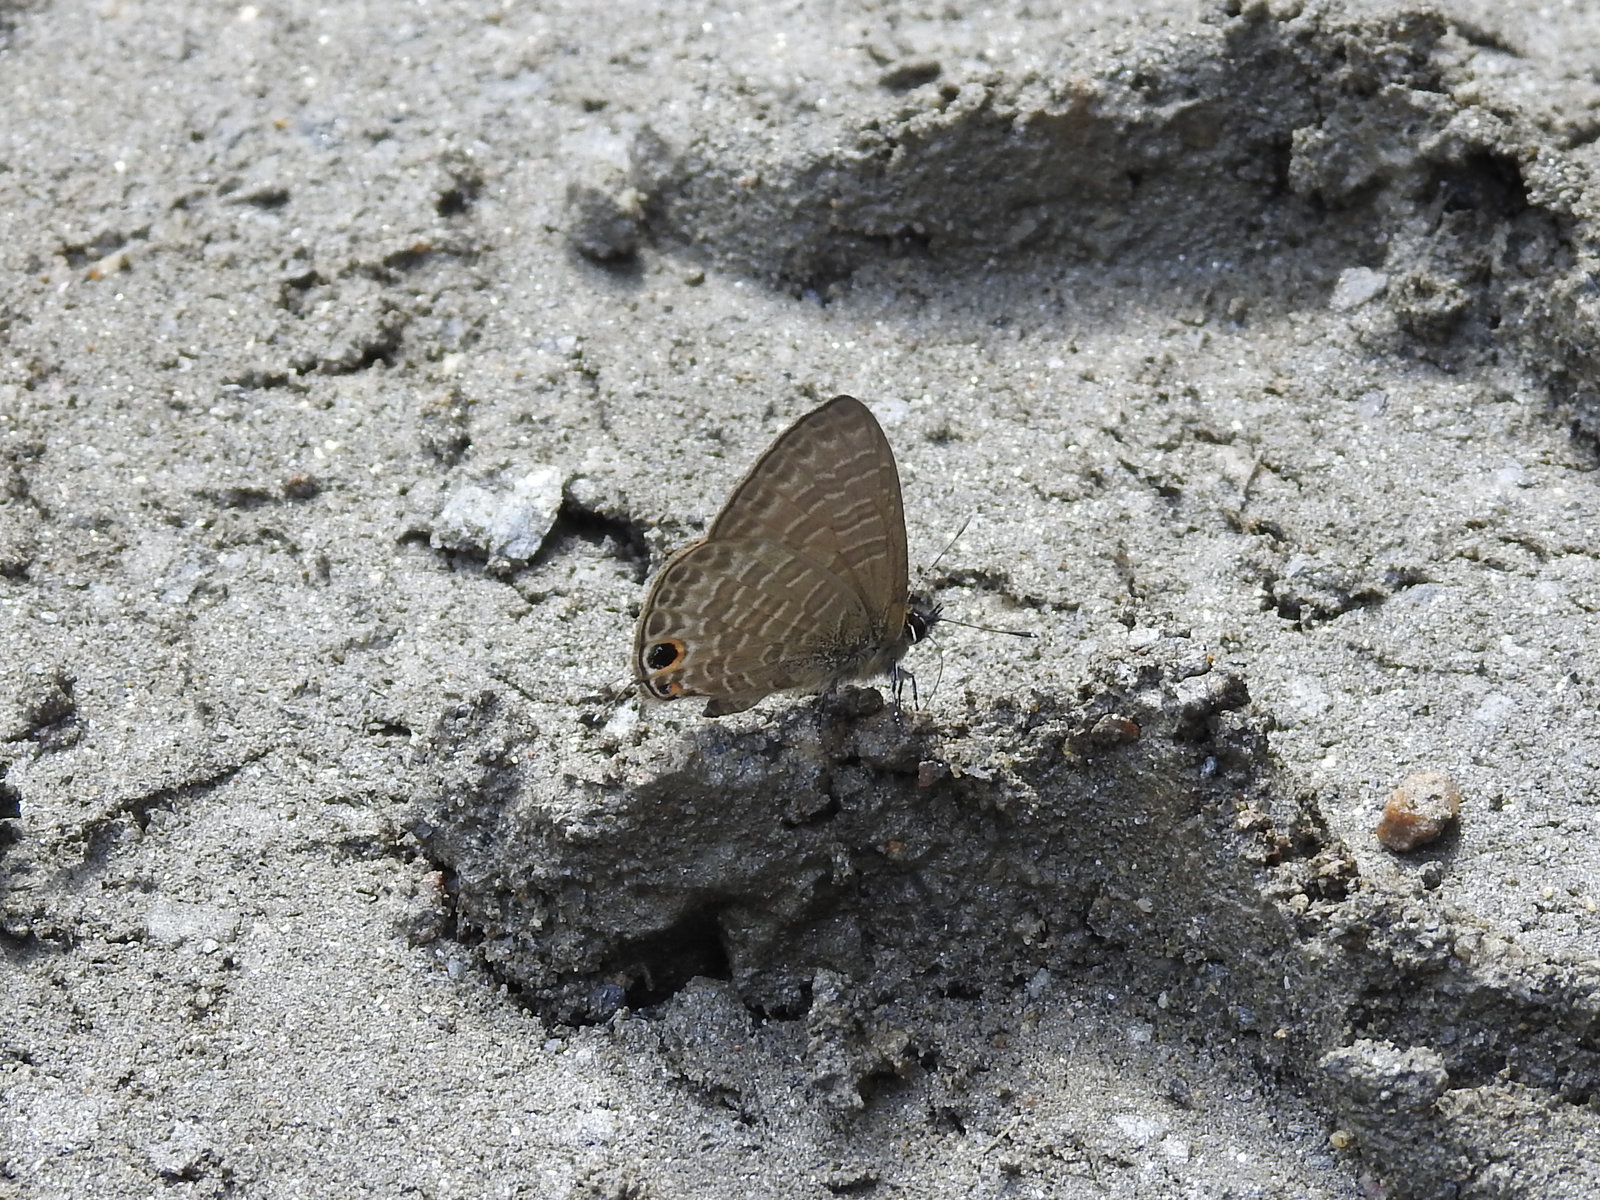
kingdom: Animalia
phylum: Arthropoda
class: Insecta
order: Lepidoptera
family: Lycaenidae
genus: Nacaduba
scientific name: Nacaduba beroe
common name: Opaque sixline blue
